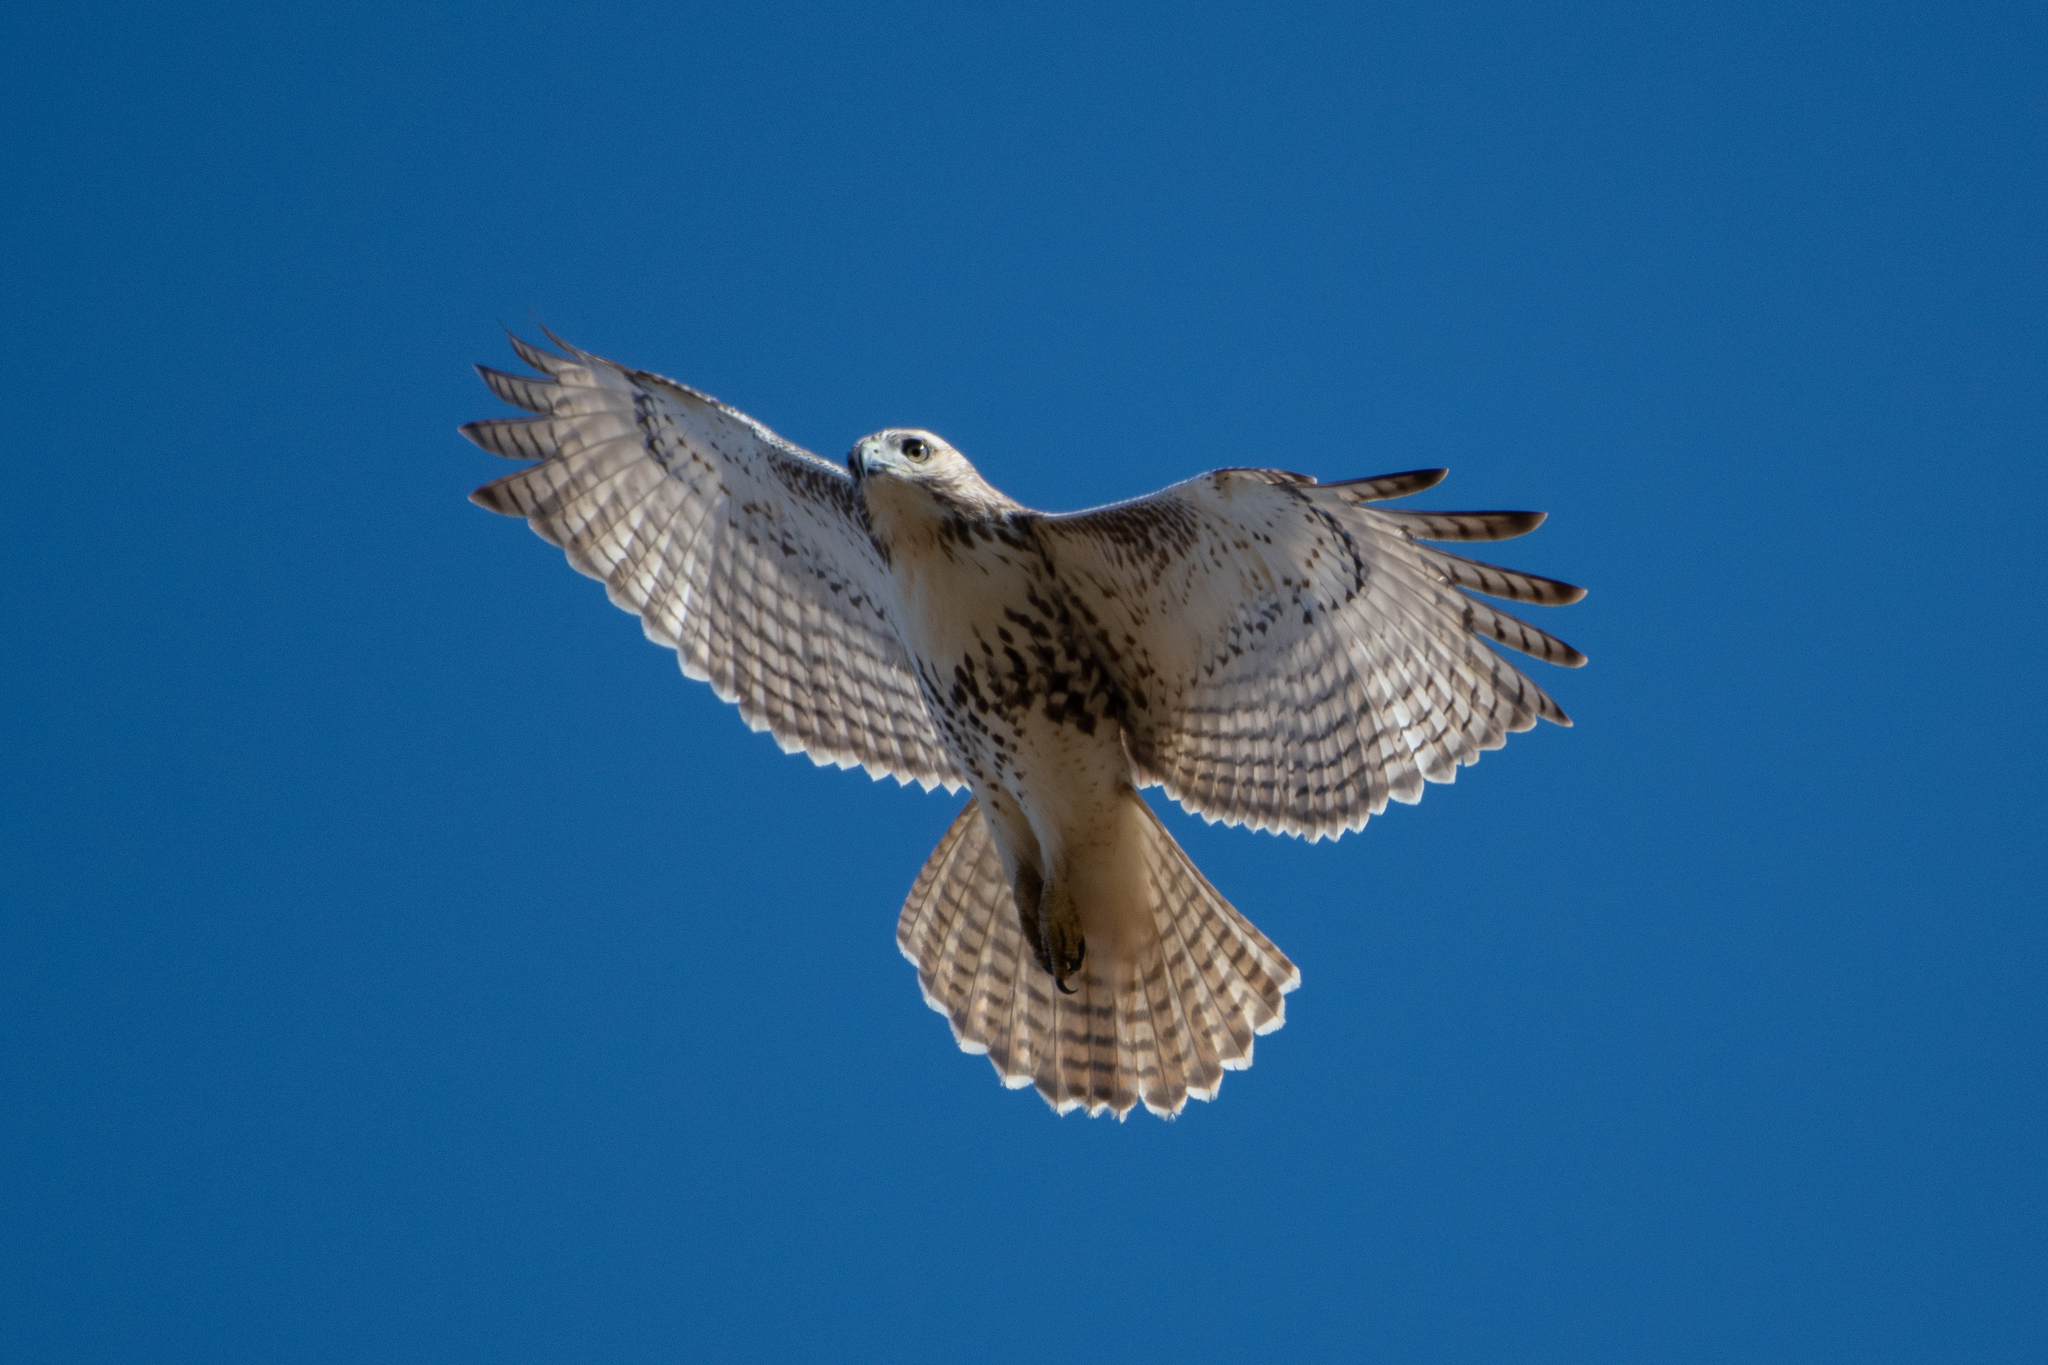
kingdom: Animalia
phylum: Chordata
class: Aves
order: Accipitriformes
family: Accipitridae
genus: Buteo
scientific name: Buteo jamaicensis
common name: Red-tailed hawk
